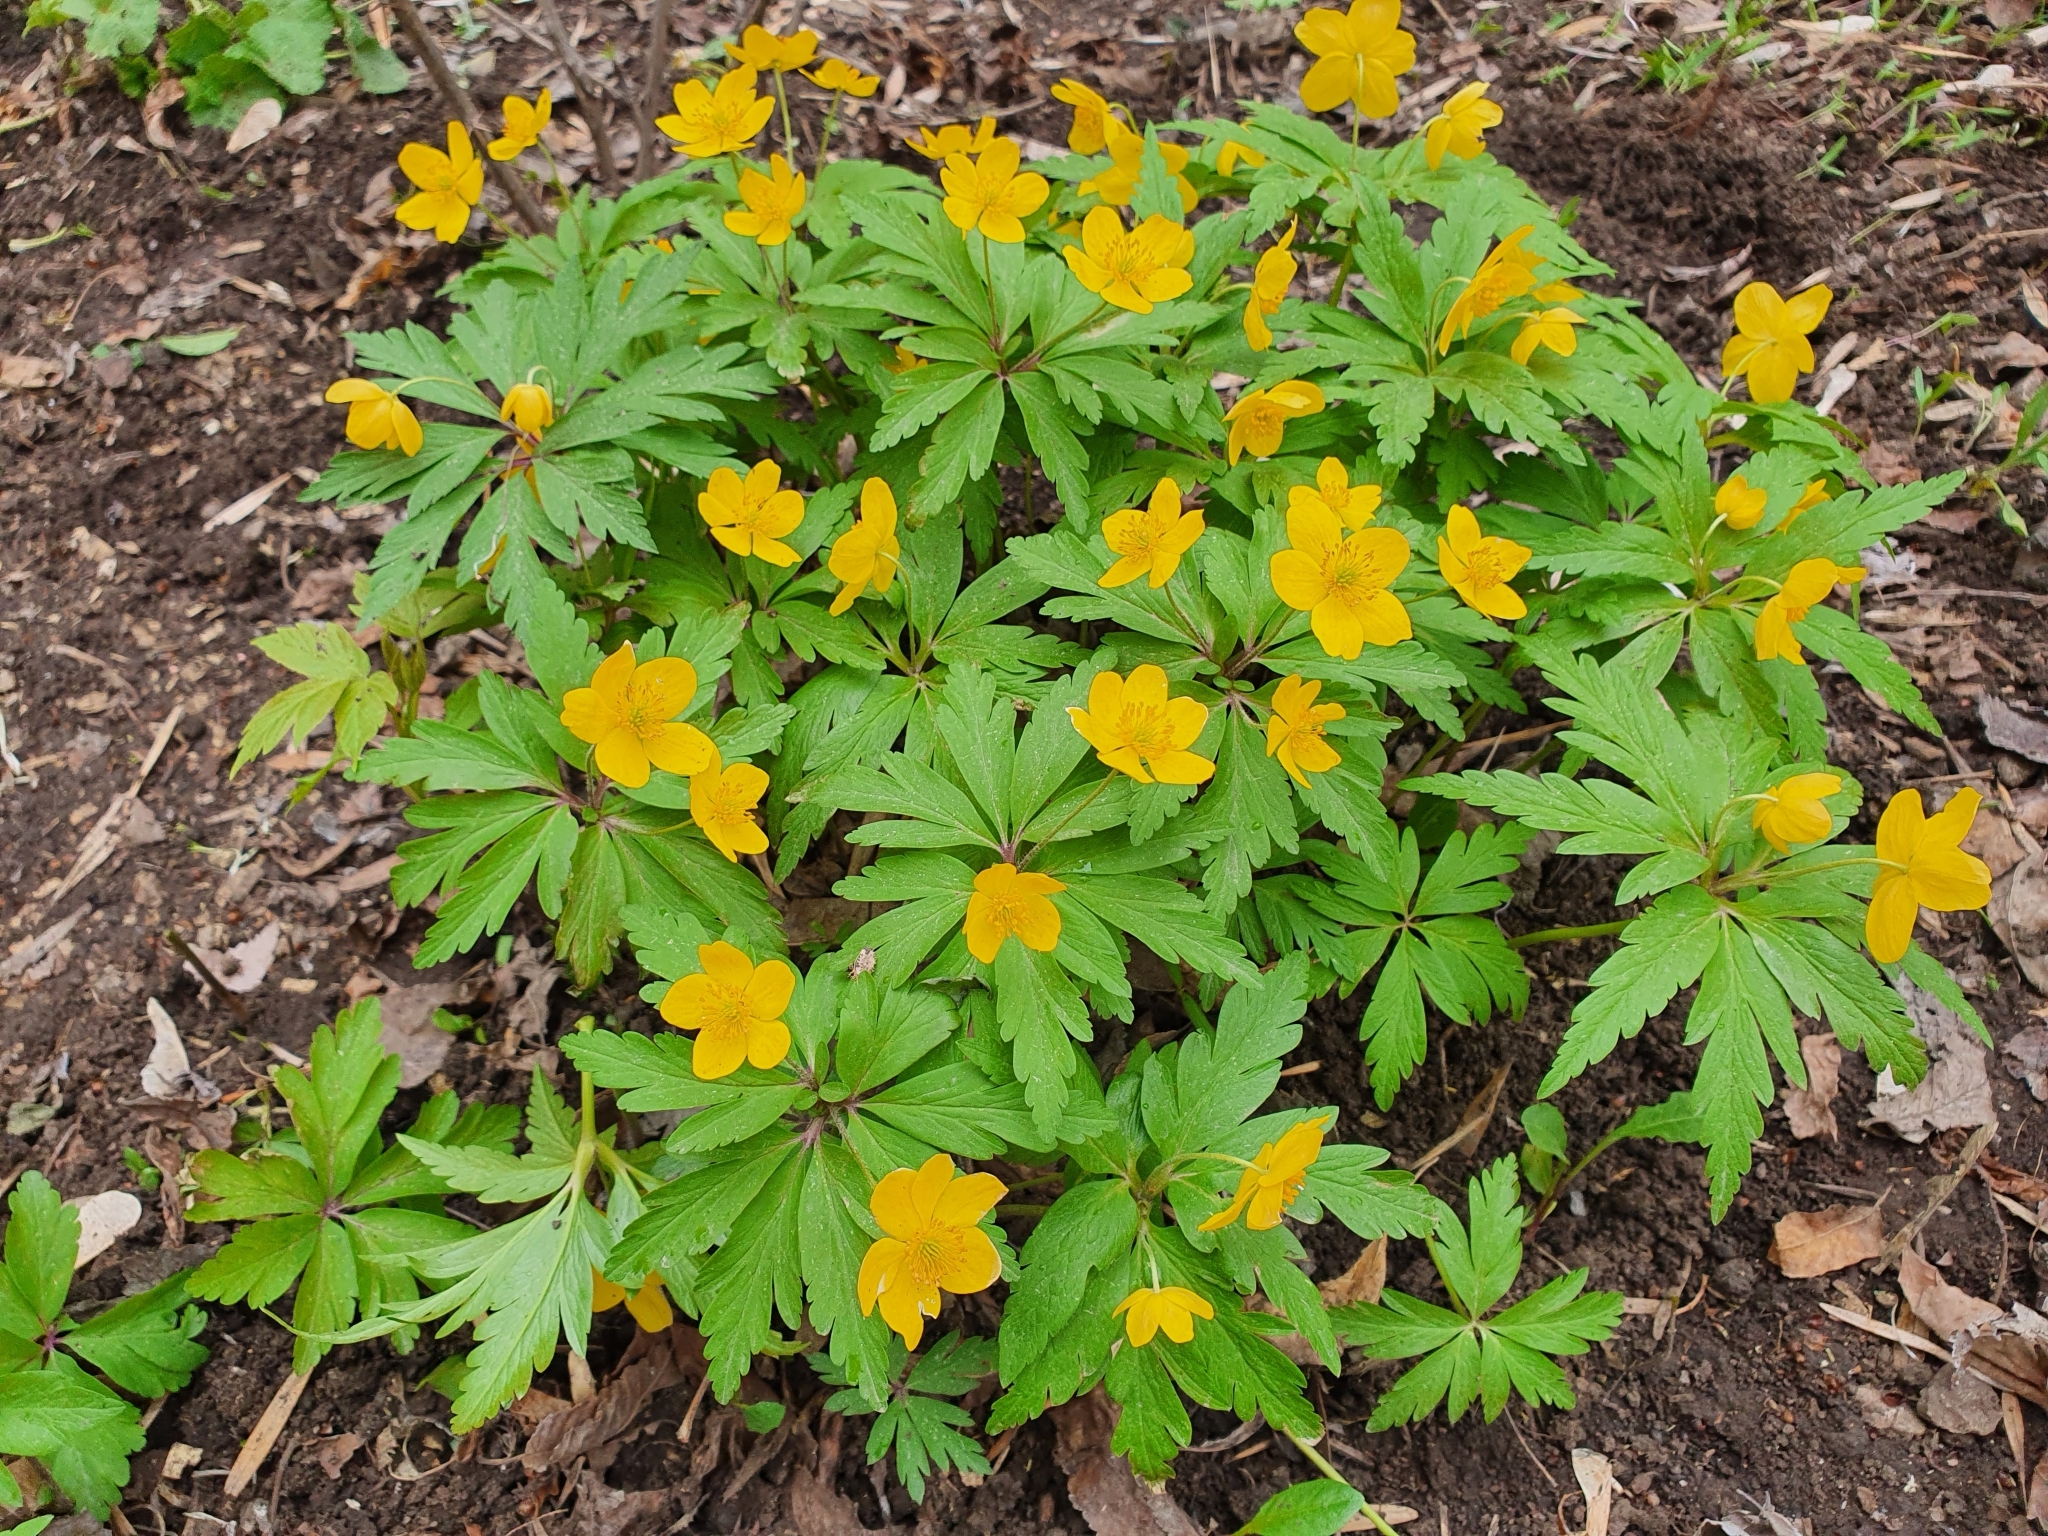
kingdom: Plantae
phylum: Tracheophyta
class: Magnoliopsida
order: Ranunculales
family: Ranunculaceae
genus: Anemone
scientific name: Anemone ranunculoides
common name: Yellow anemone
